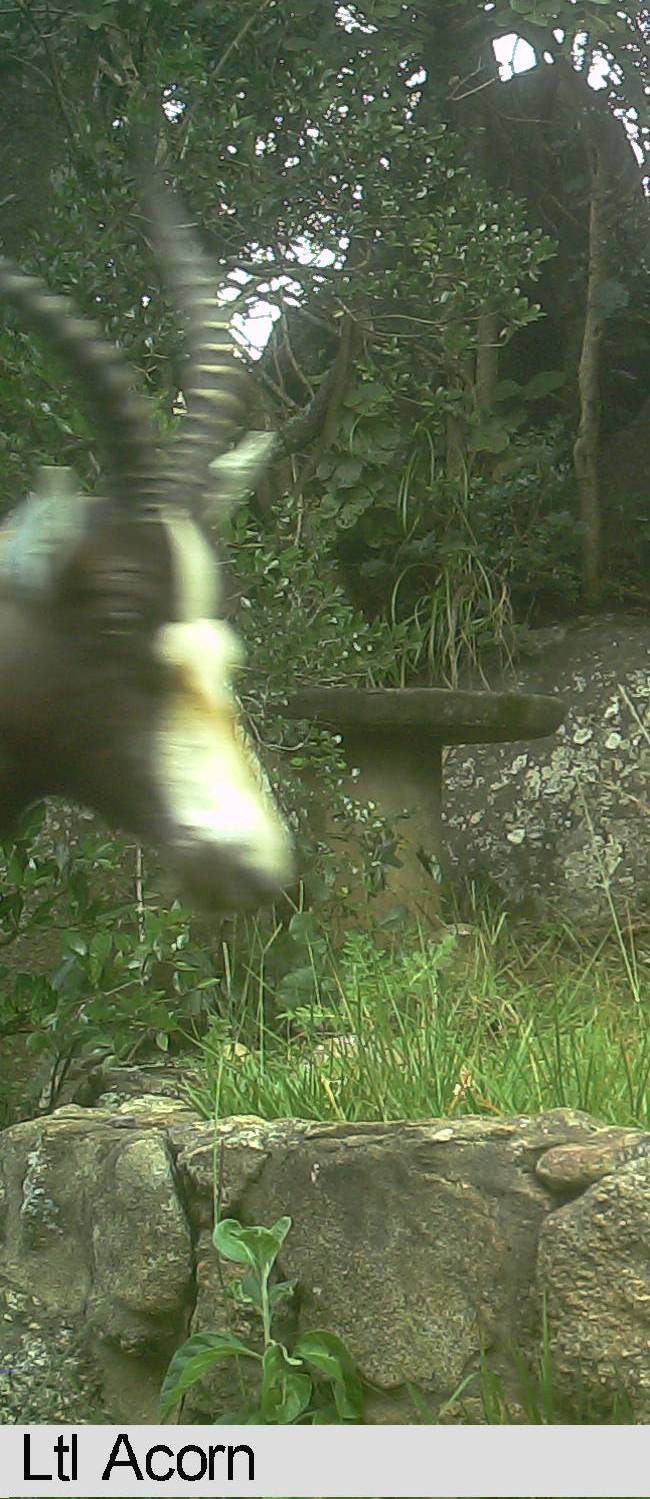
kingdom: Animalia
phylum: Chordata
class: Mammalia
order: Artiodactyla
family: Bovidae
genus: Damaliscus
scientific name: Damaliscus pygargus
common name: Bontebok
